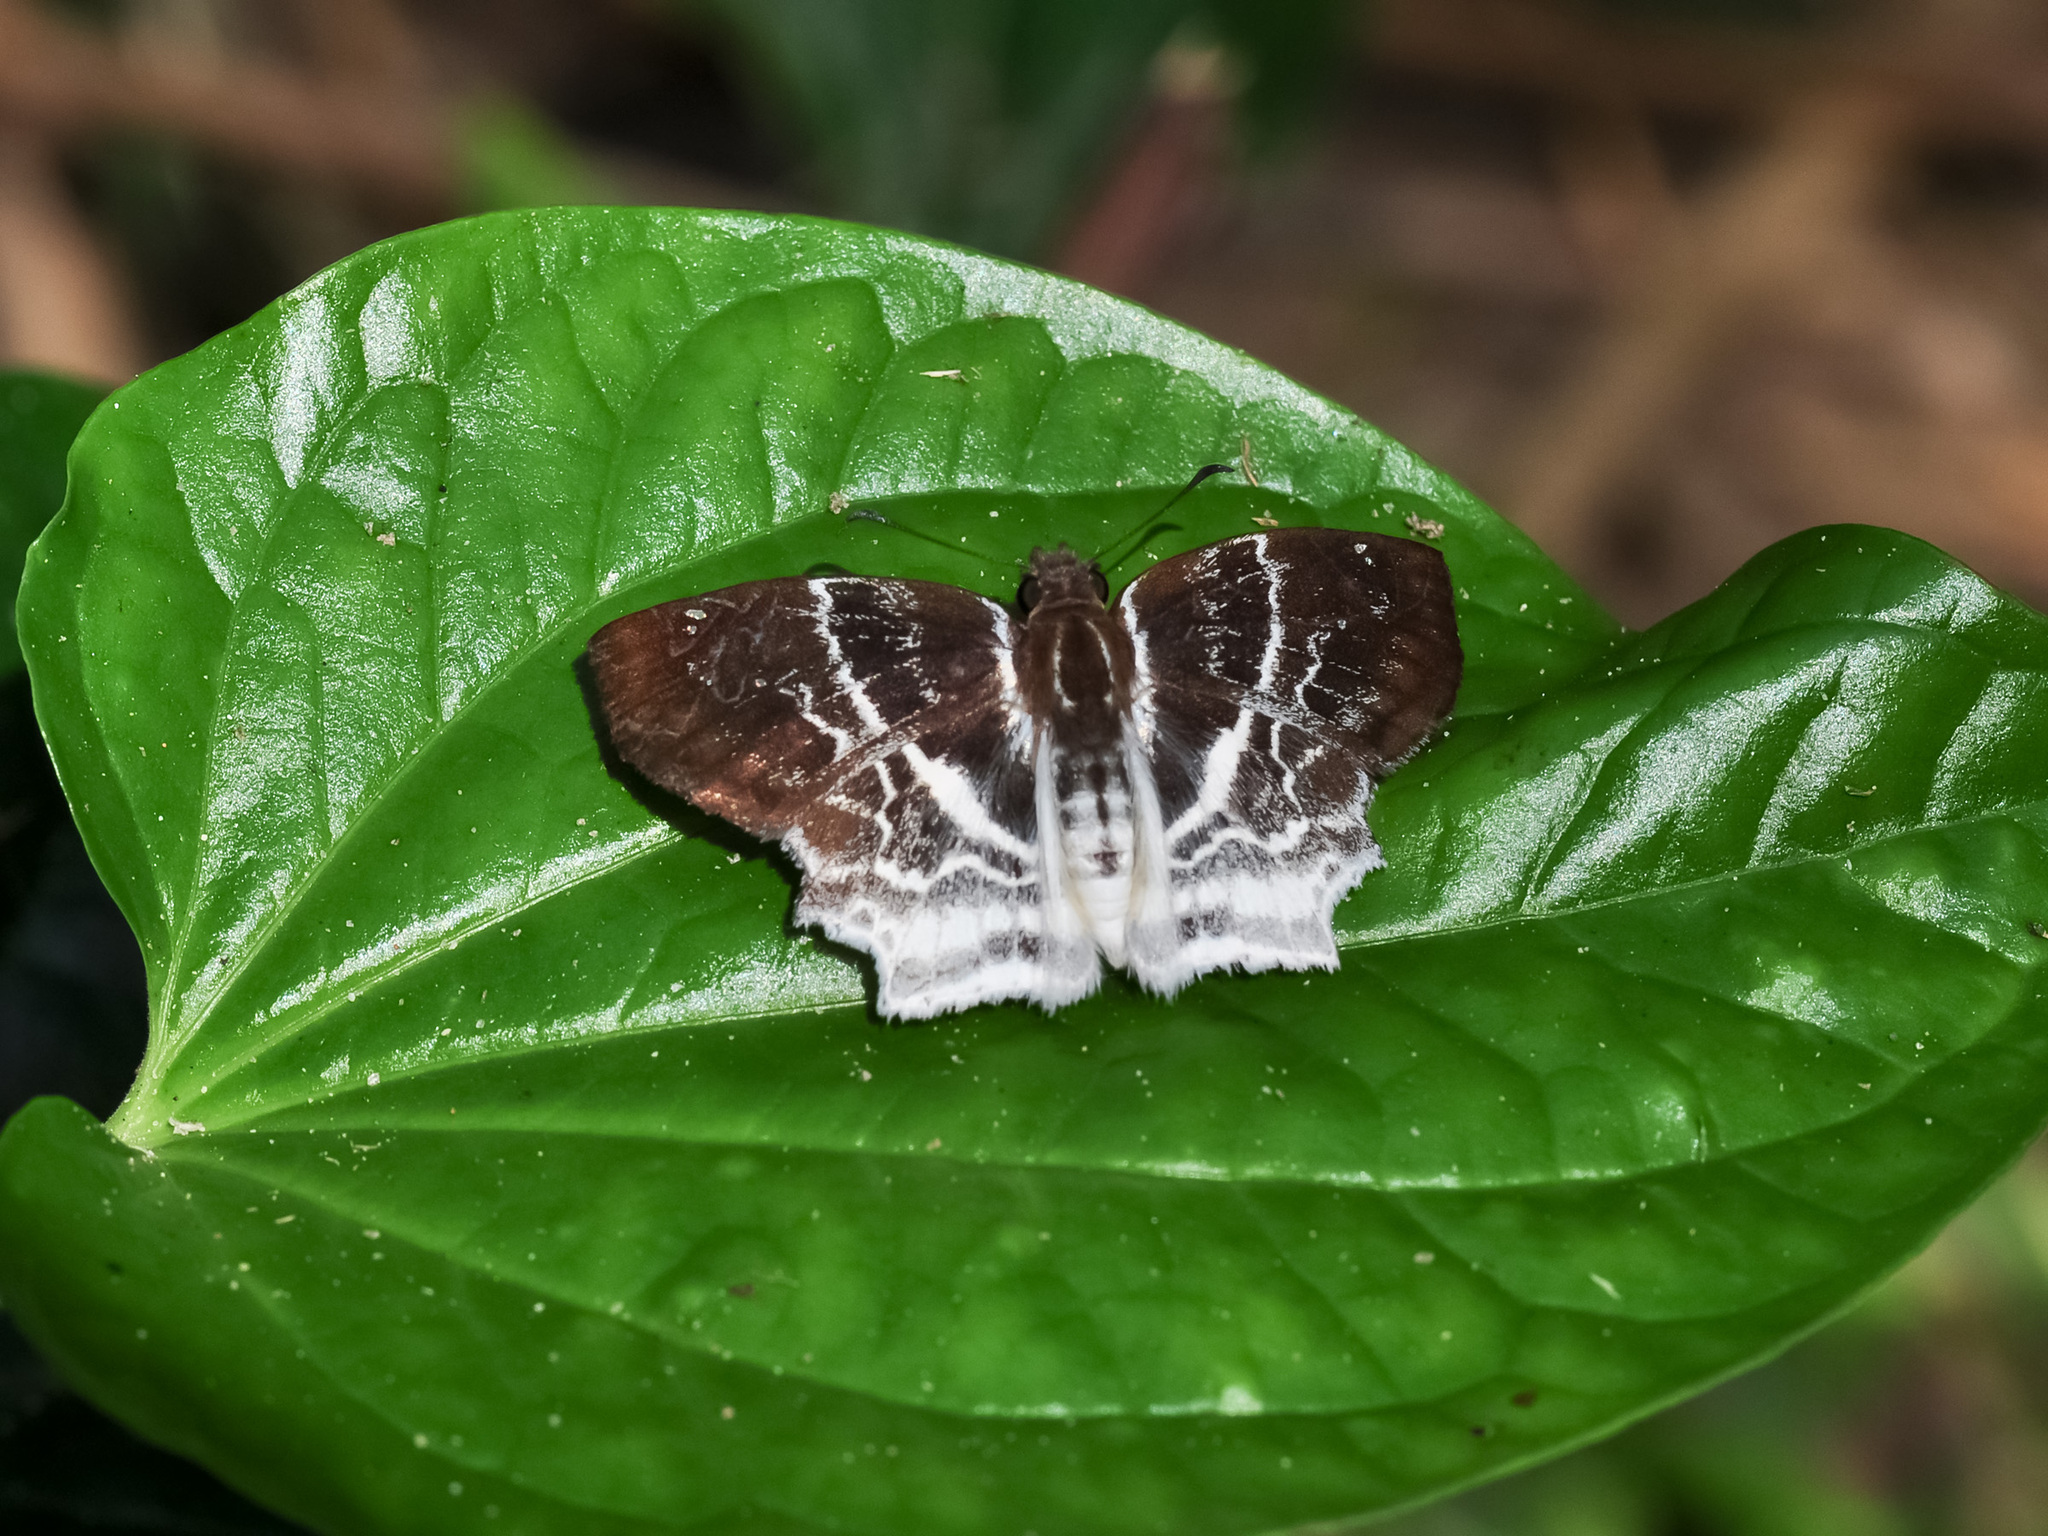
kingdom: Animalia
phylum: Arthropoda
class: Insecta
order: Lepidoptera
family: Hesperiidae
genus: Odontoptilum
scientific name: Odontoptilum pygela
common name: Banded angle
